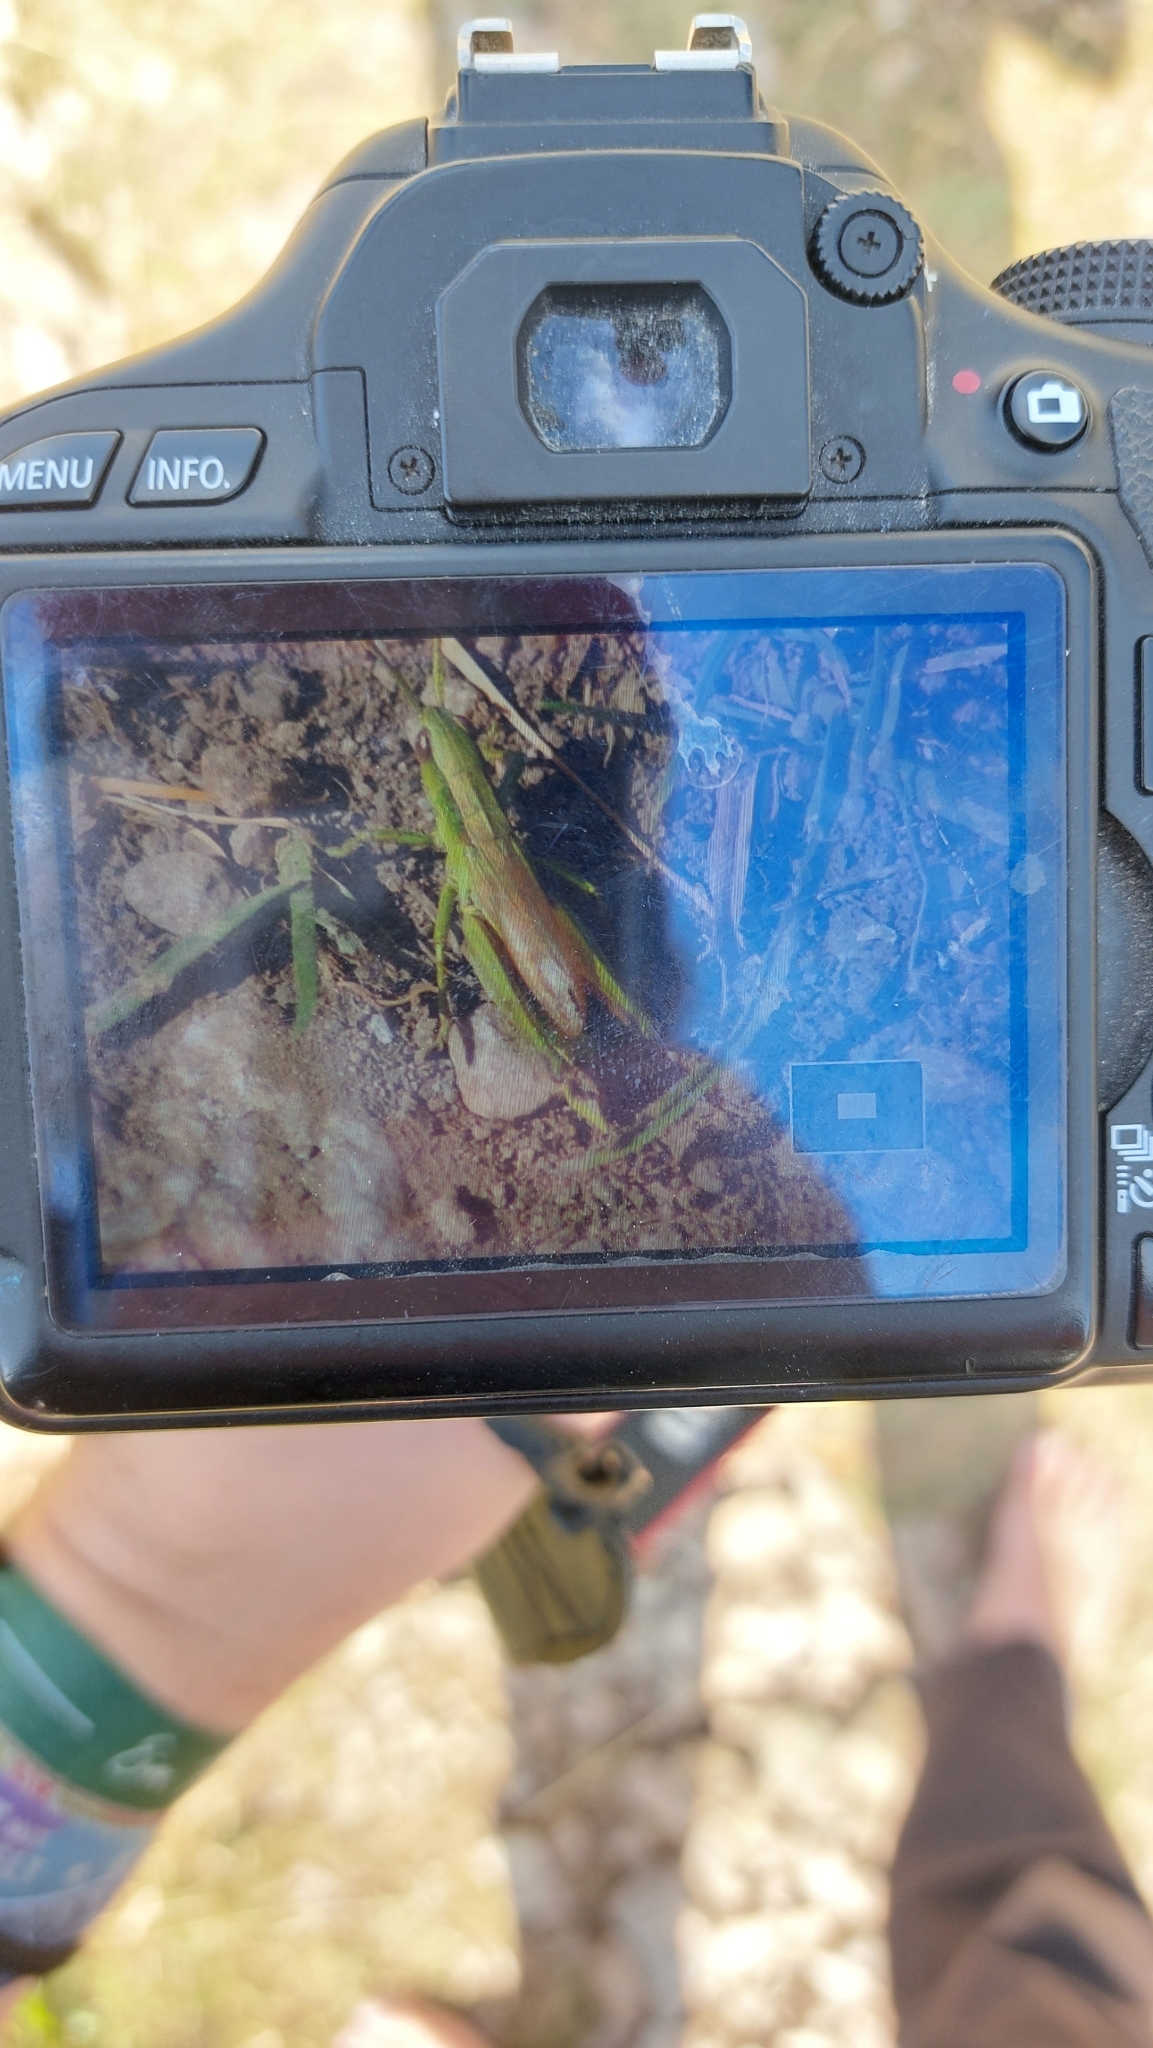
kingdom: Animalia
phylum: Arthropoda
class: Insecta
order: Orthoptera
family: Acrididae
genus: Euthystira
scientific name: Euthystira brachyptera
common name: Small gold grasshopper
